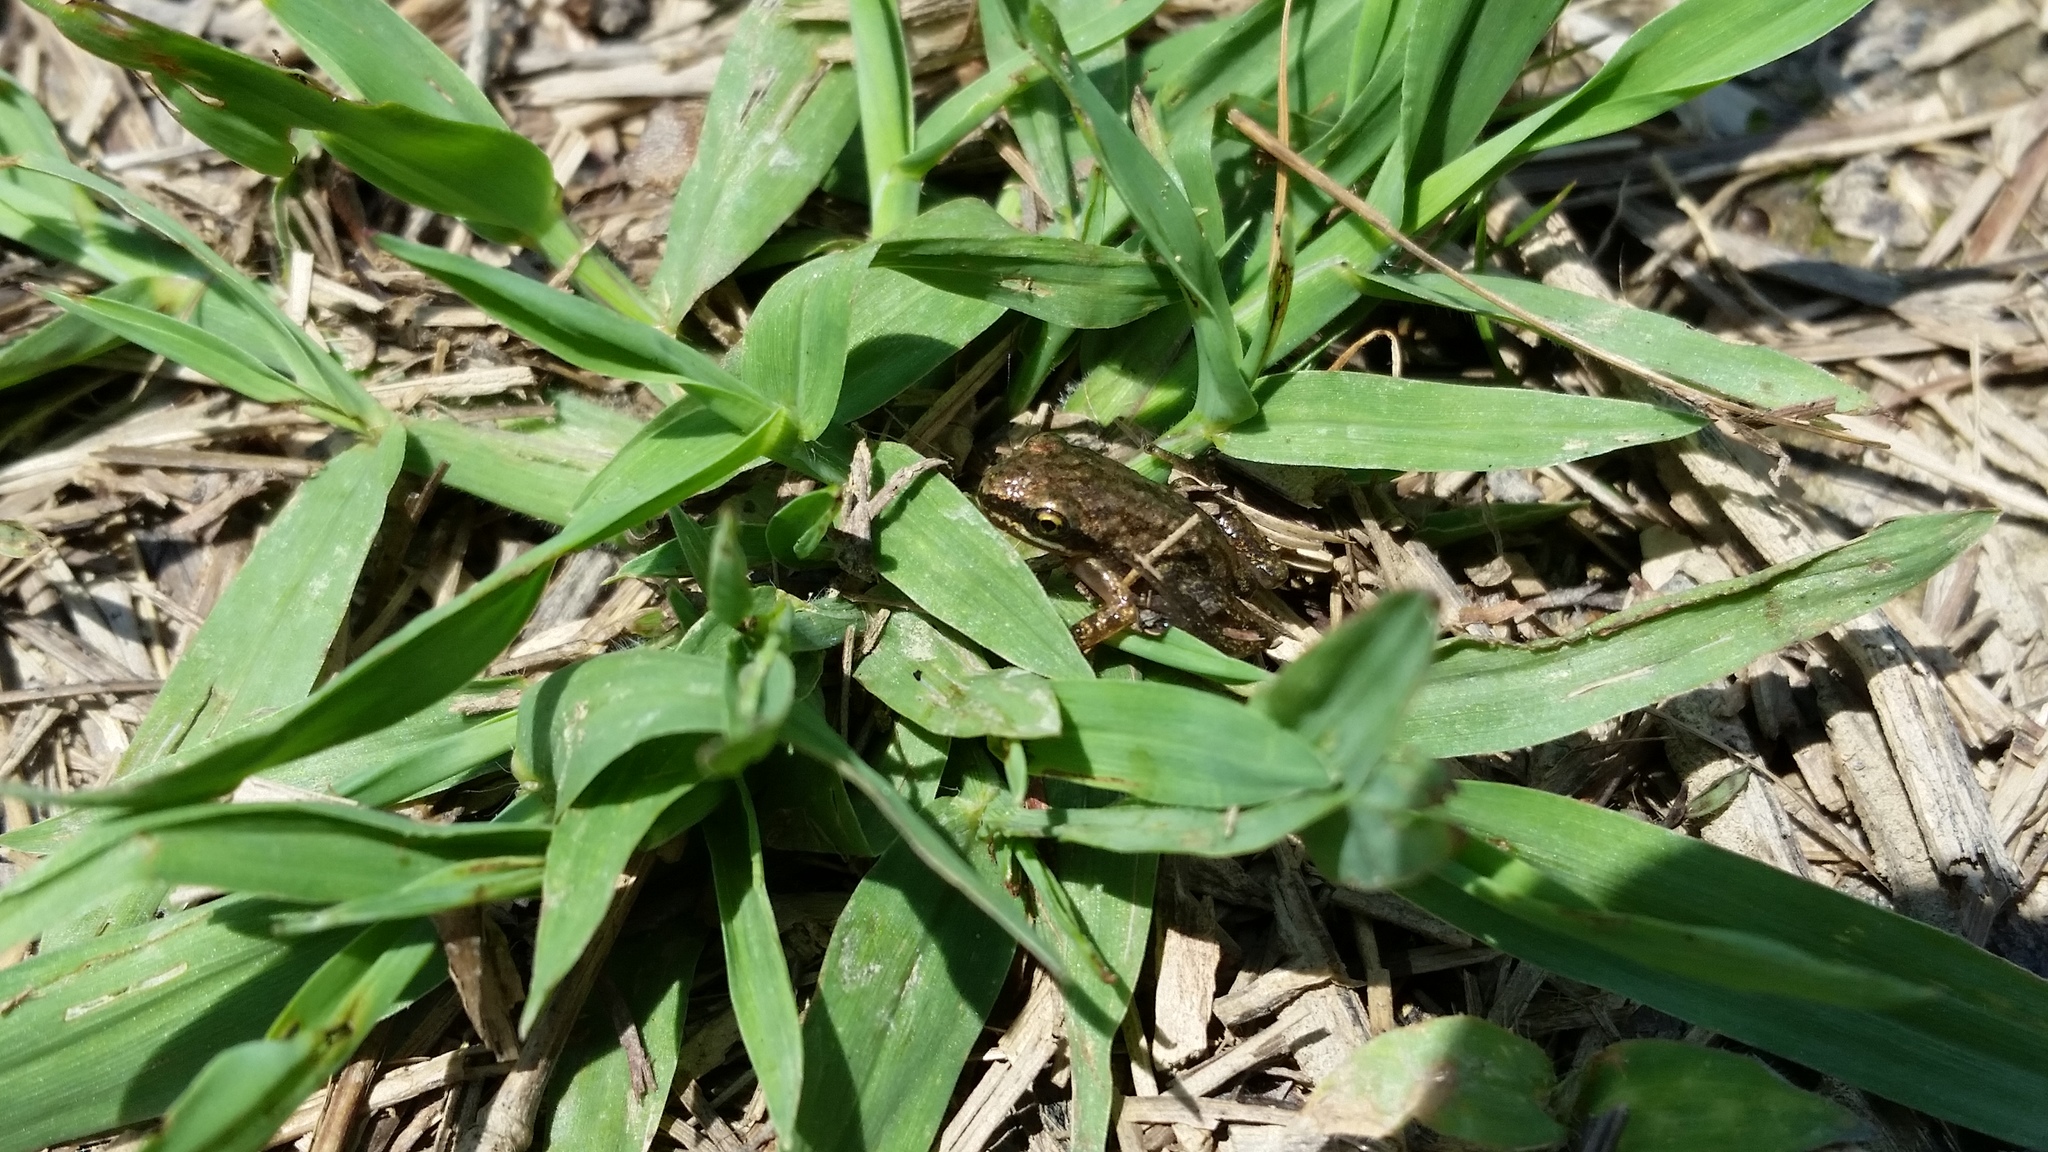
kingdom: Animalia
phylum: Chordata
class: Amphibia
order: Anura
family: Hylidae
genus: Pseudacris
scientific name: Pseudacris feriarum
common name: Upland chorus frog
